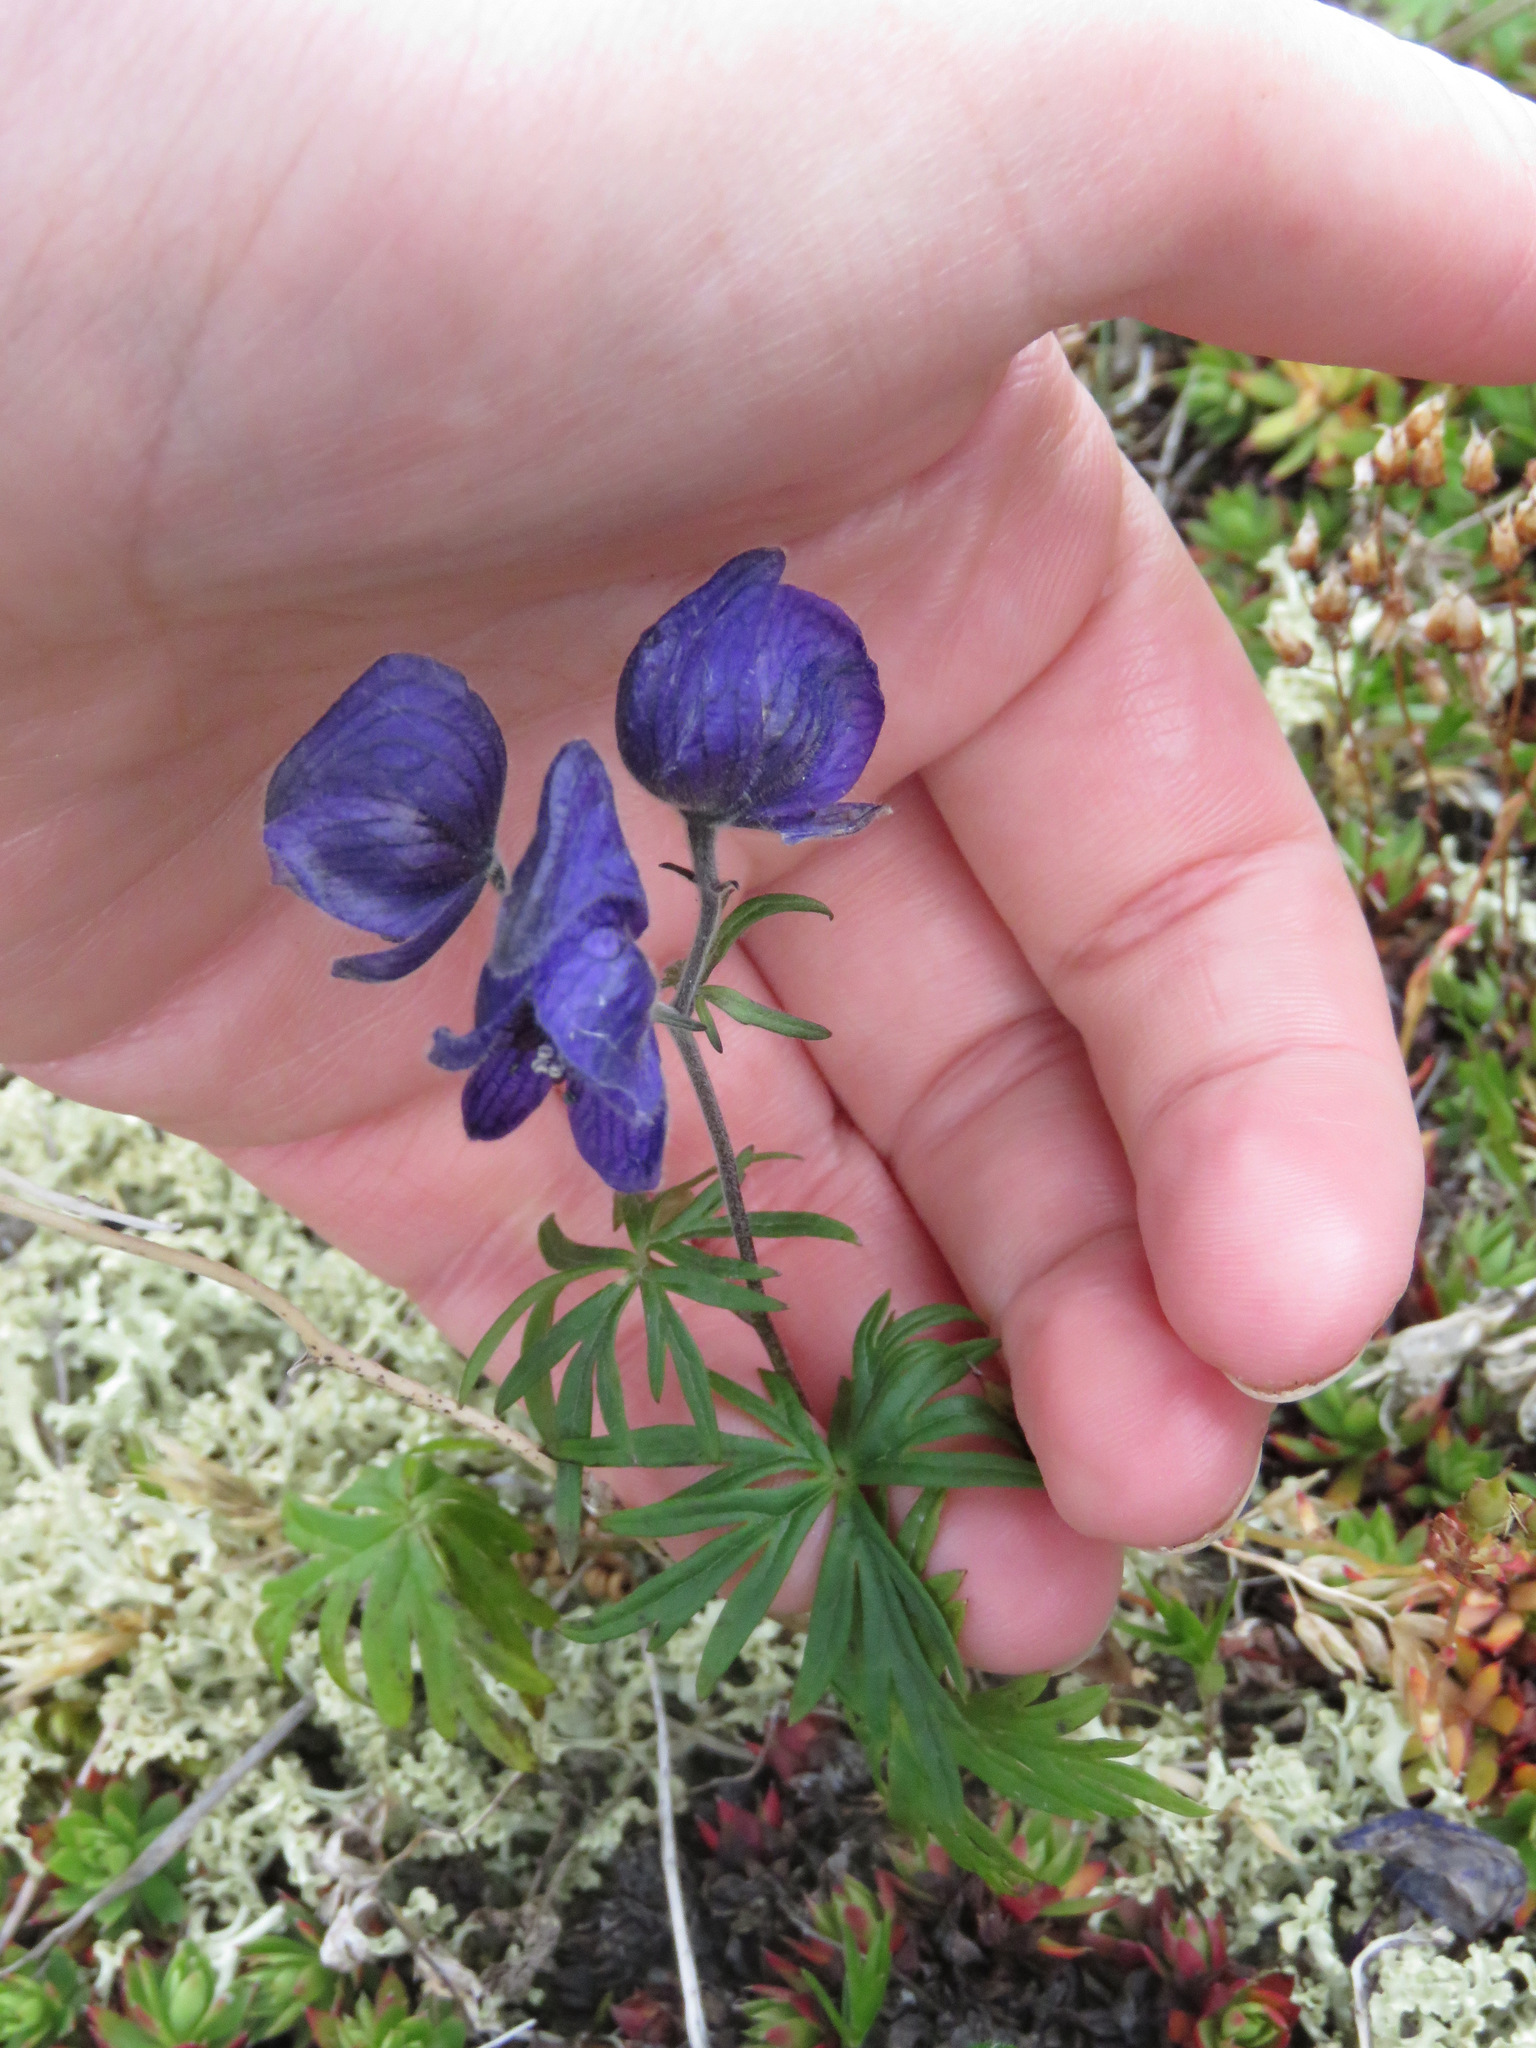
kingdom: Plantae
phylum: Tracheophyta
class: Magnoliopsida
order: Ranunculales
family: Ranunculaceae
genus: Aconitum
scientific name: Aconitum delphiniifolium
